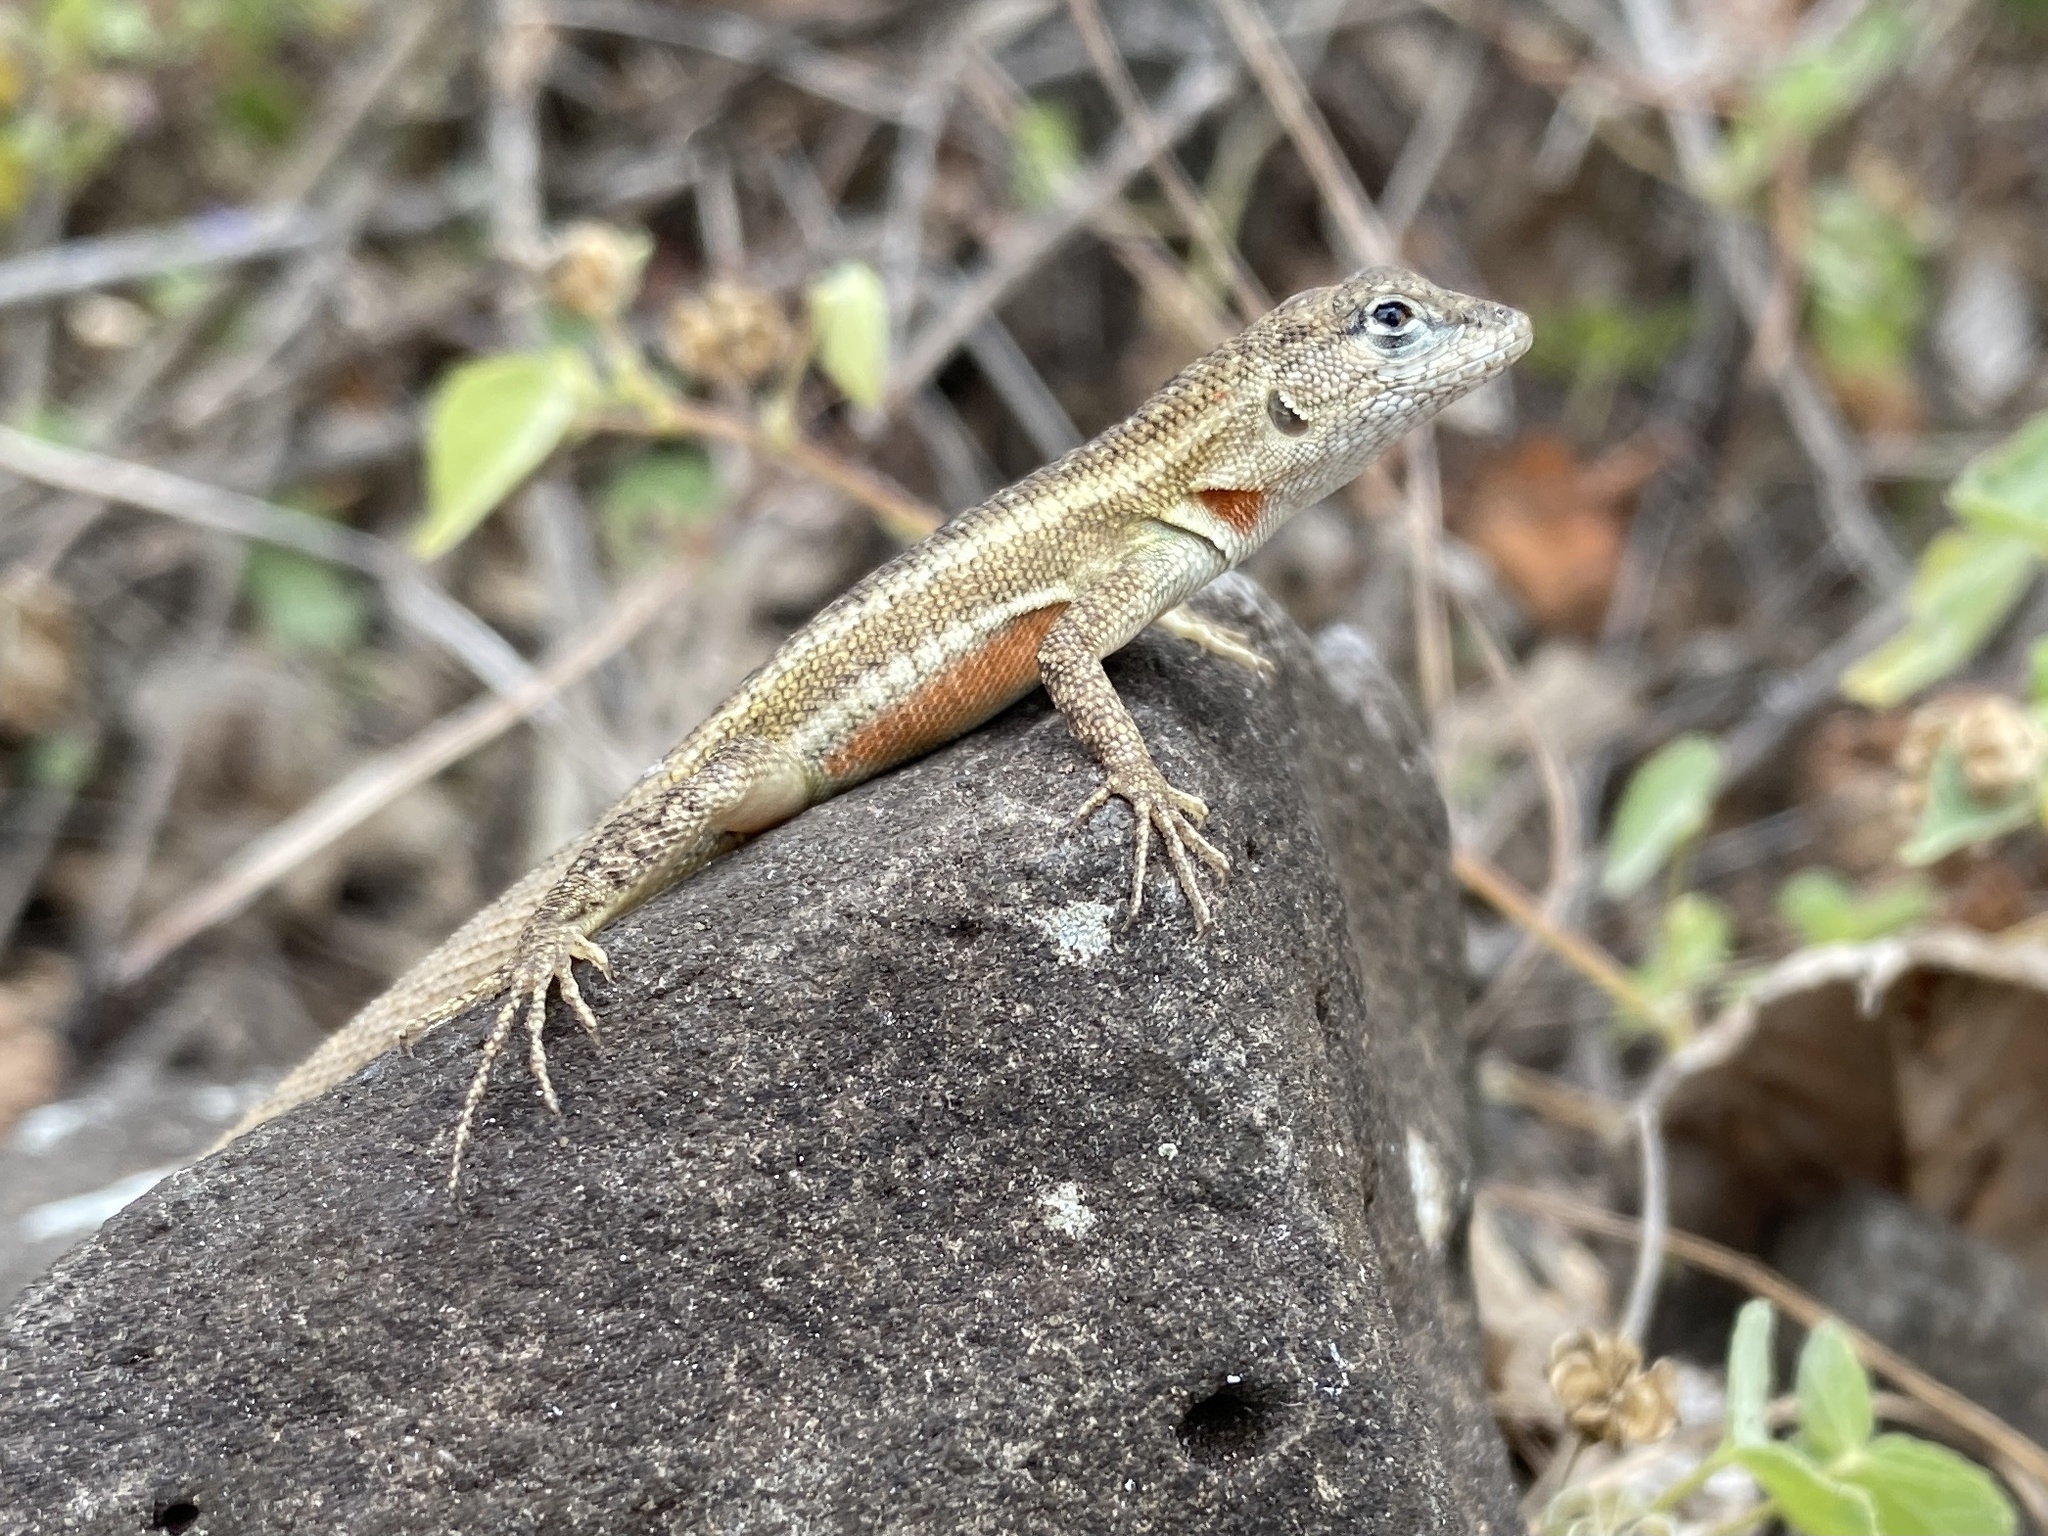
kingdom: Animalia
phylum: Chordata
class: Squamata
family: Tropiduridae
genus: Microlophus
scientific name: Microlophus bivittatus
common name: San cristobal lava lizard
